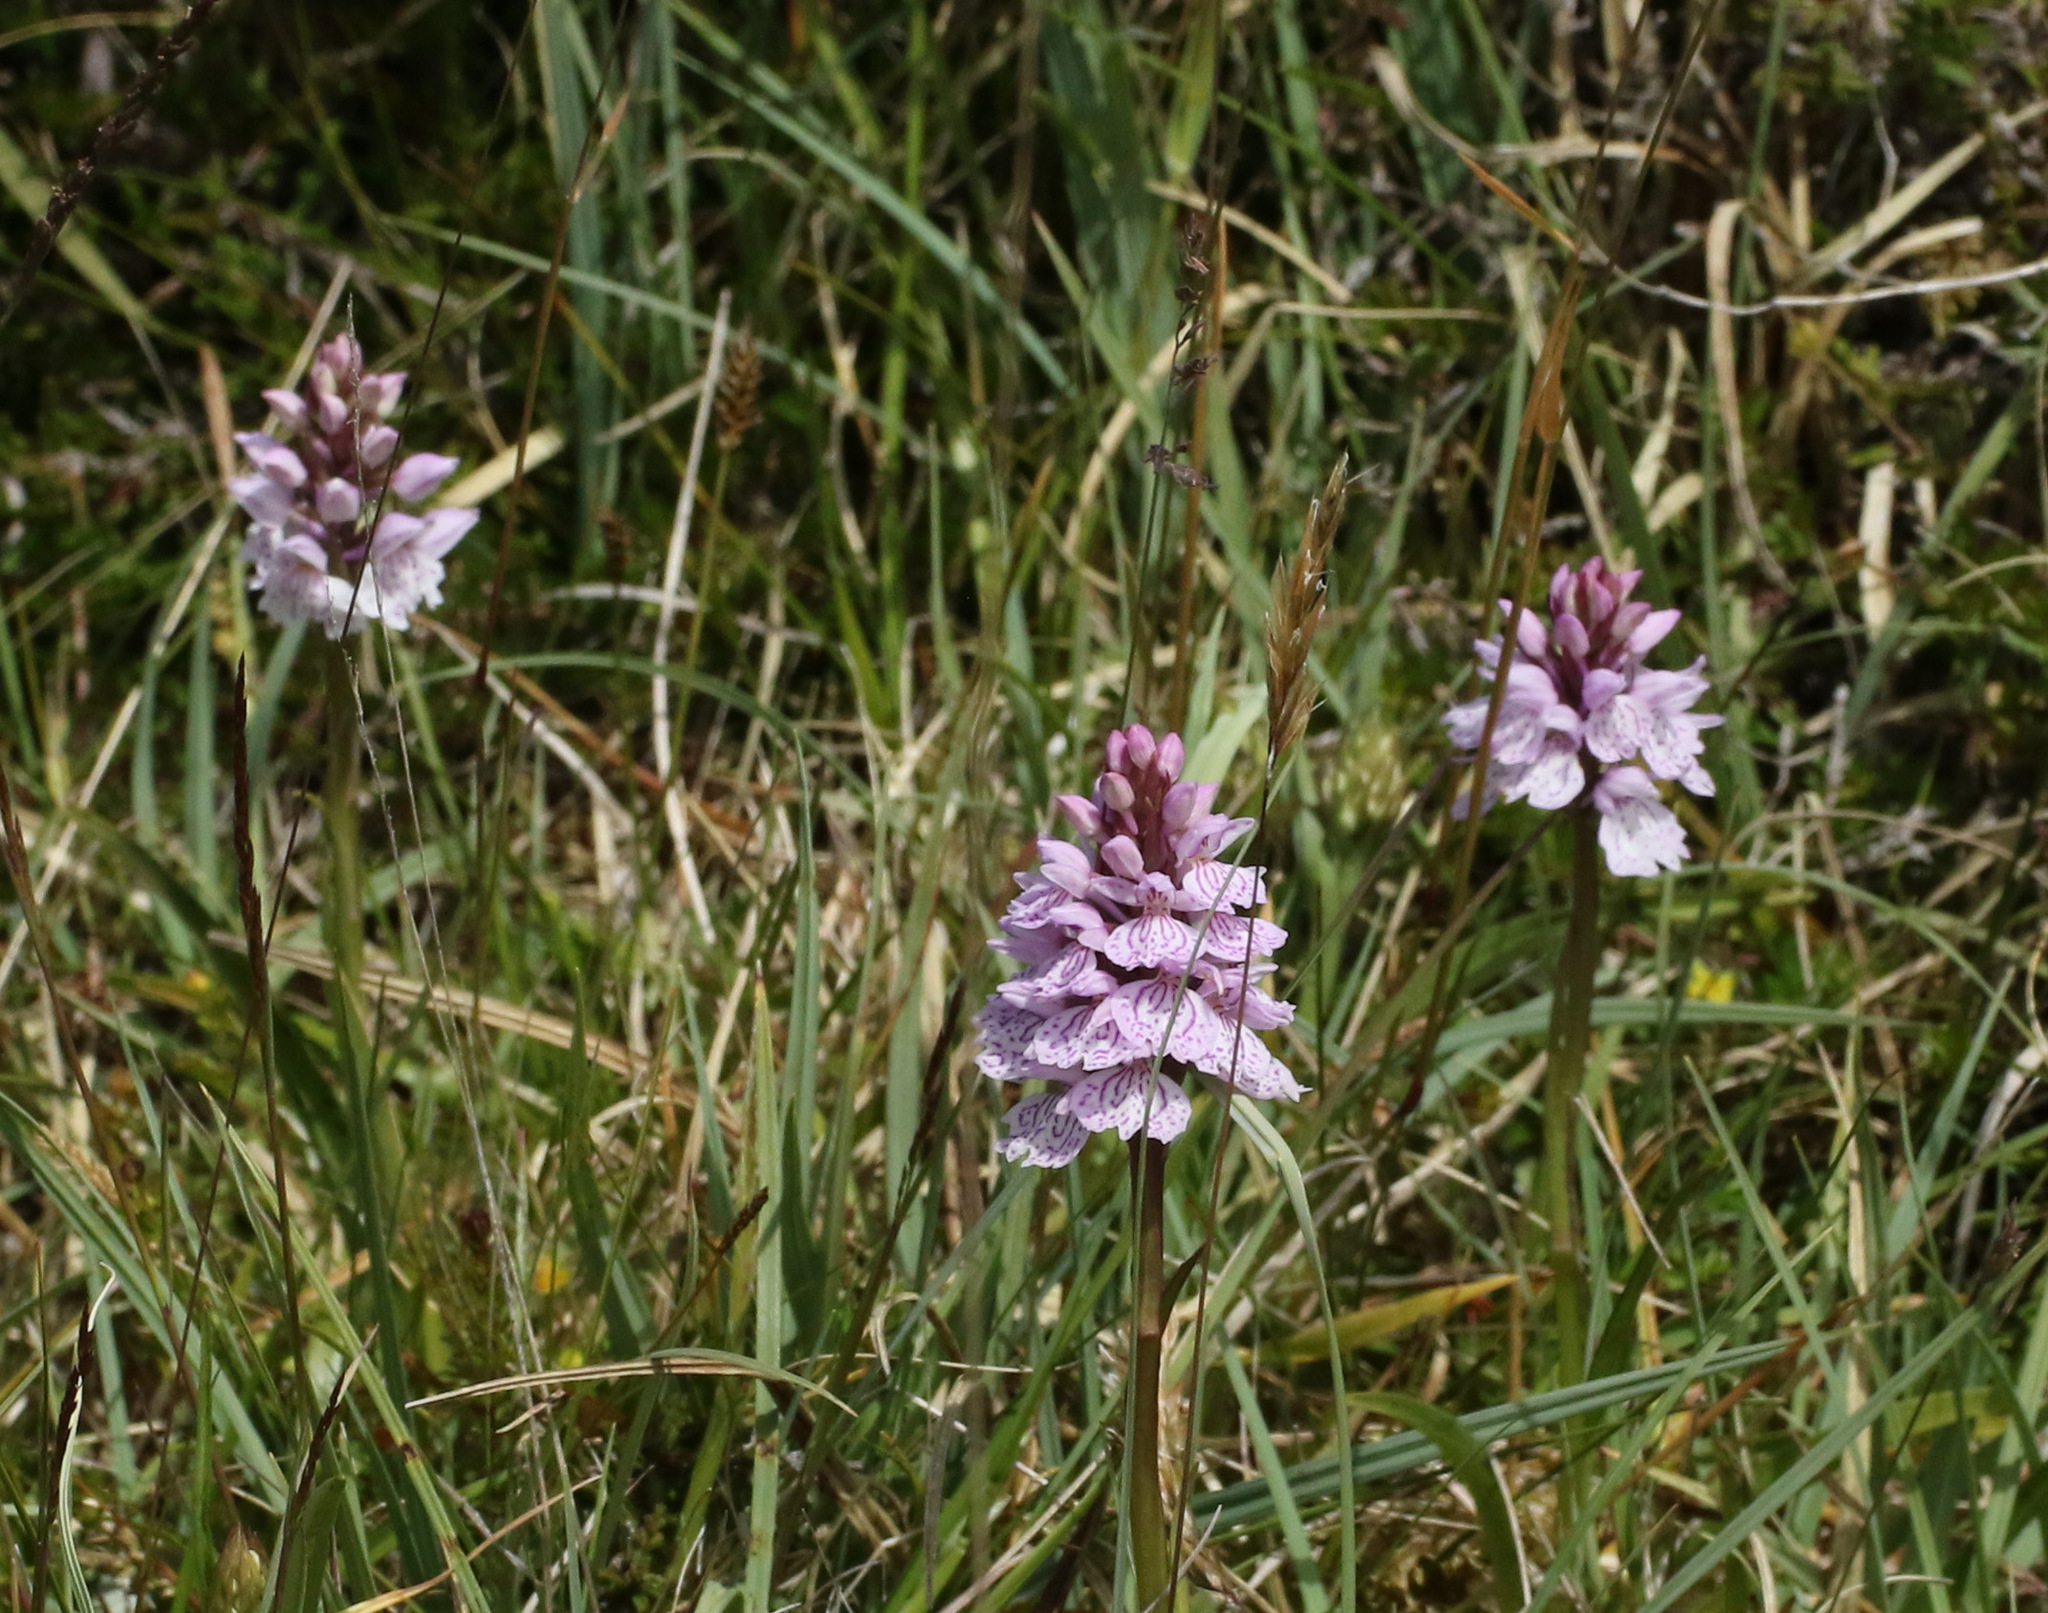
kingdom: Plantae
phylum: Tracheophyta
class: Liliopsida
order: Asparagales
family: Orchidaceae
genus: Dactylorhiza
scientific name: Dactylorhiza maculata
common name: Heath spotted-orchid
